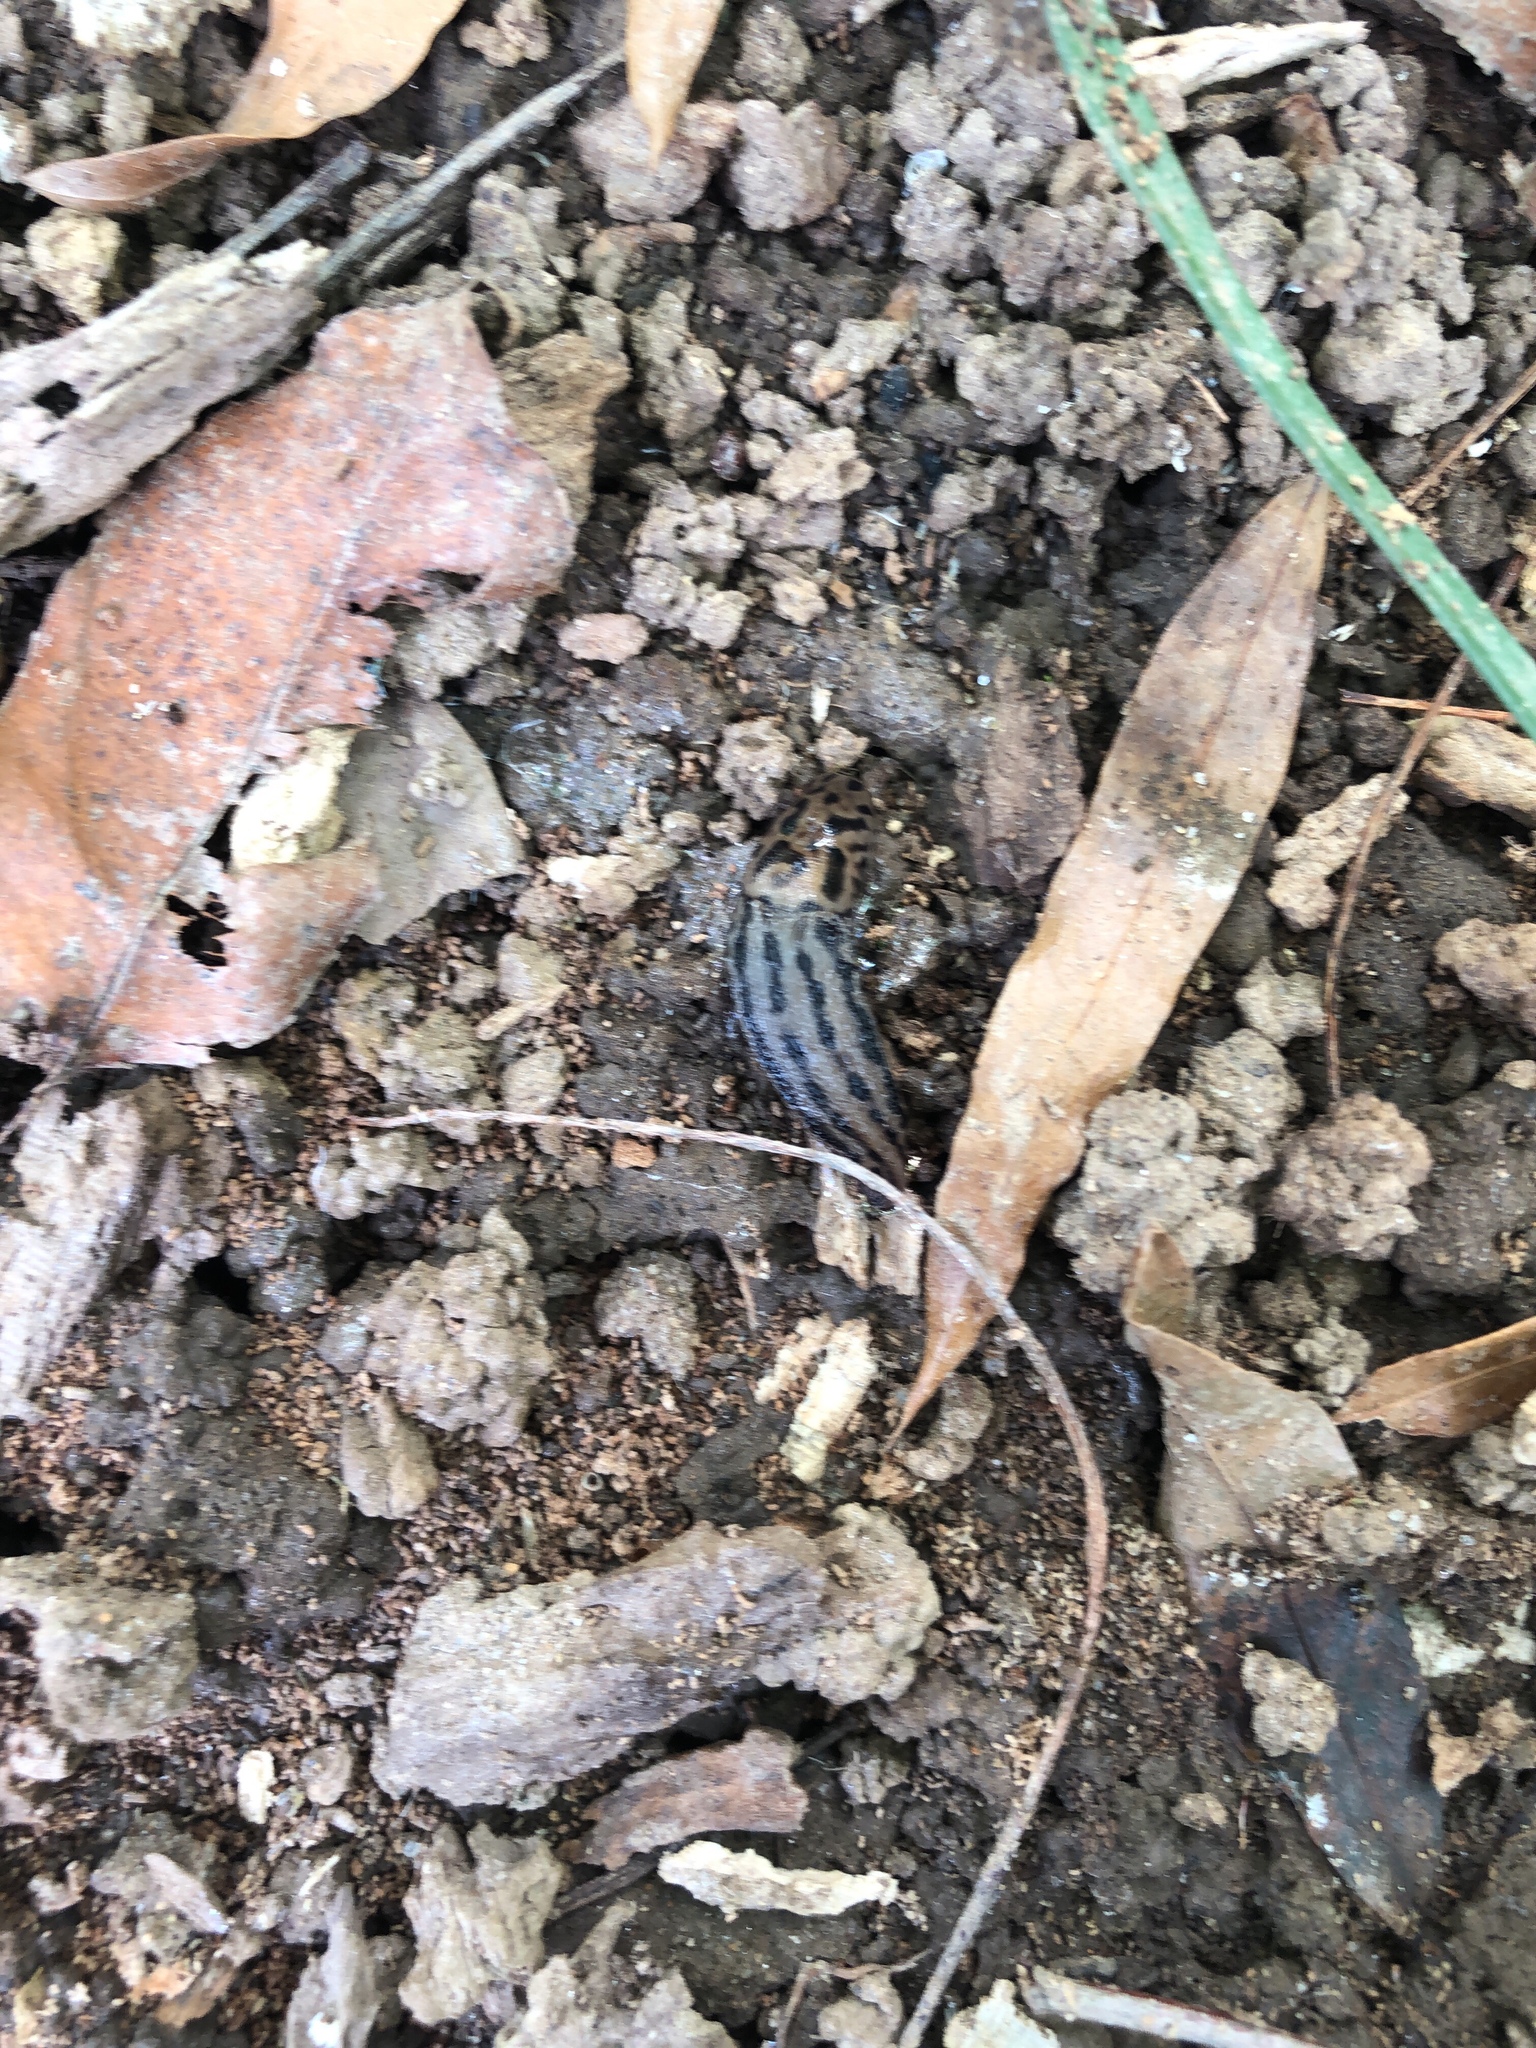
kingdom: Animalia
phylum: Mollusca
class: Gastropoda
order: Stylommatophora
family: Limacidae
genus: Limax
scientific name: Limax maximus
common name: Great grey slug
